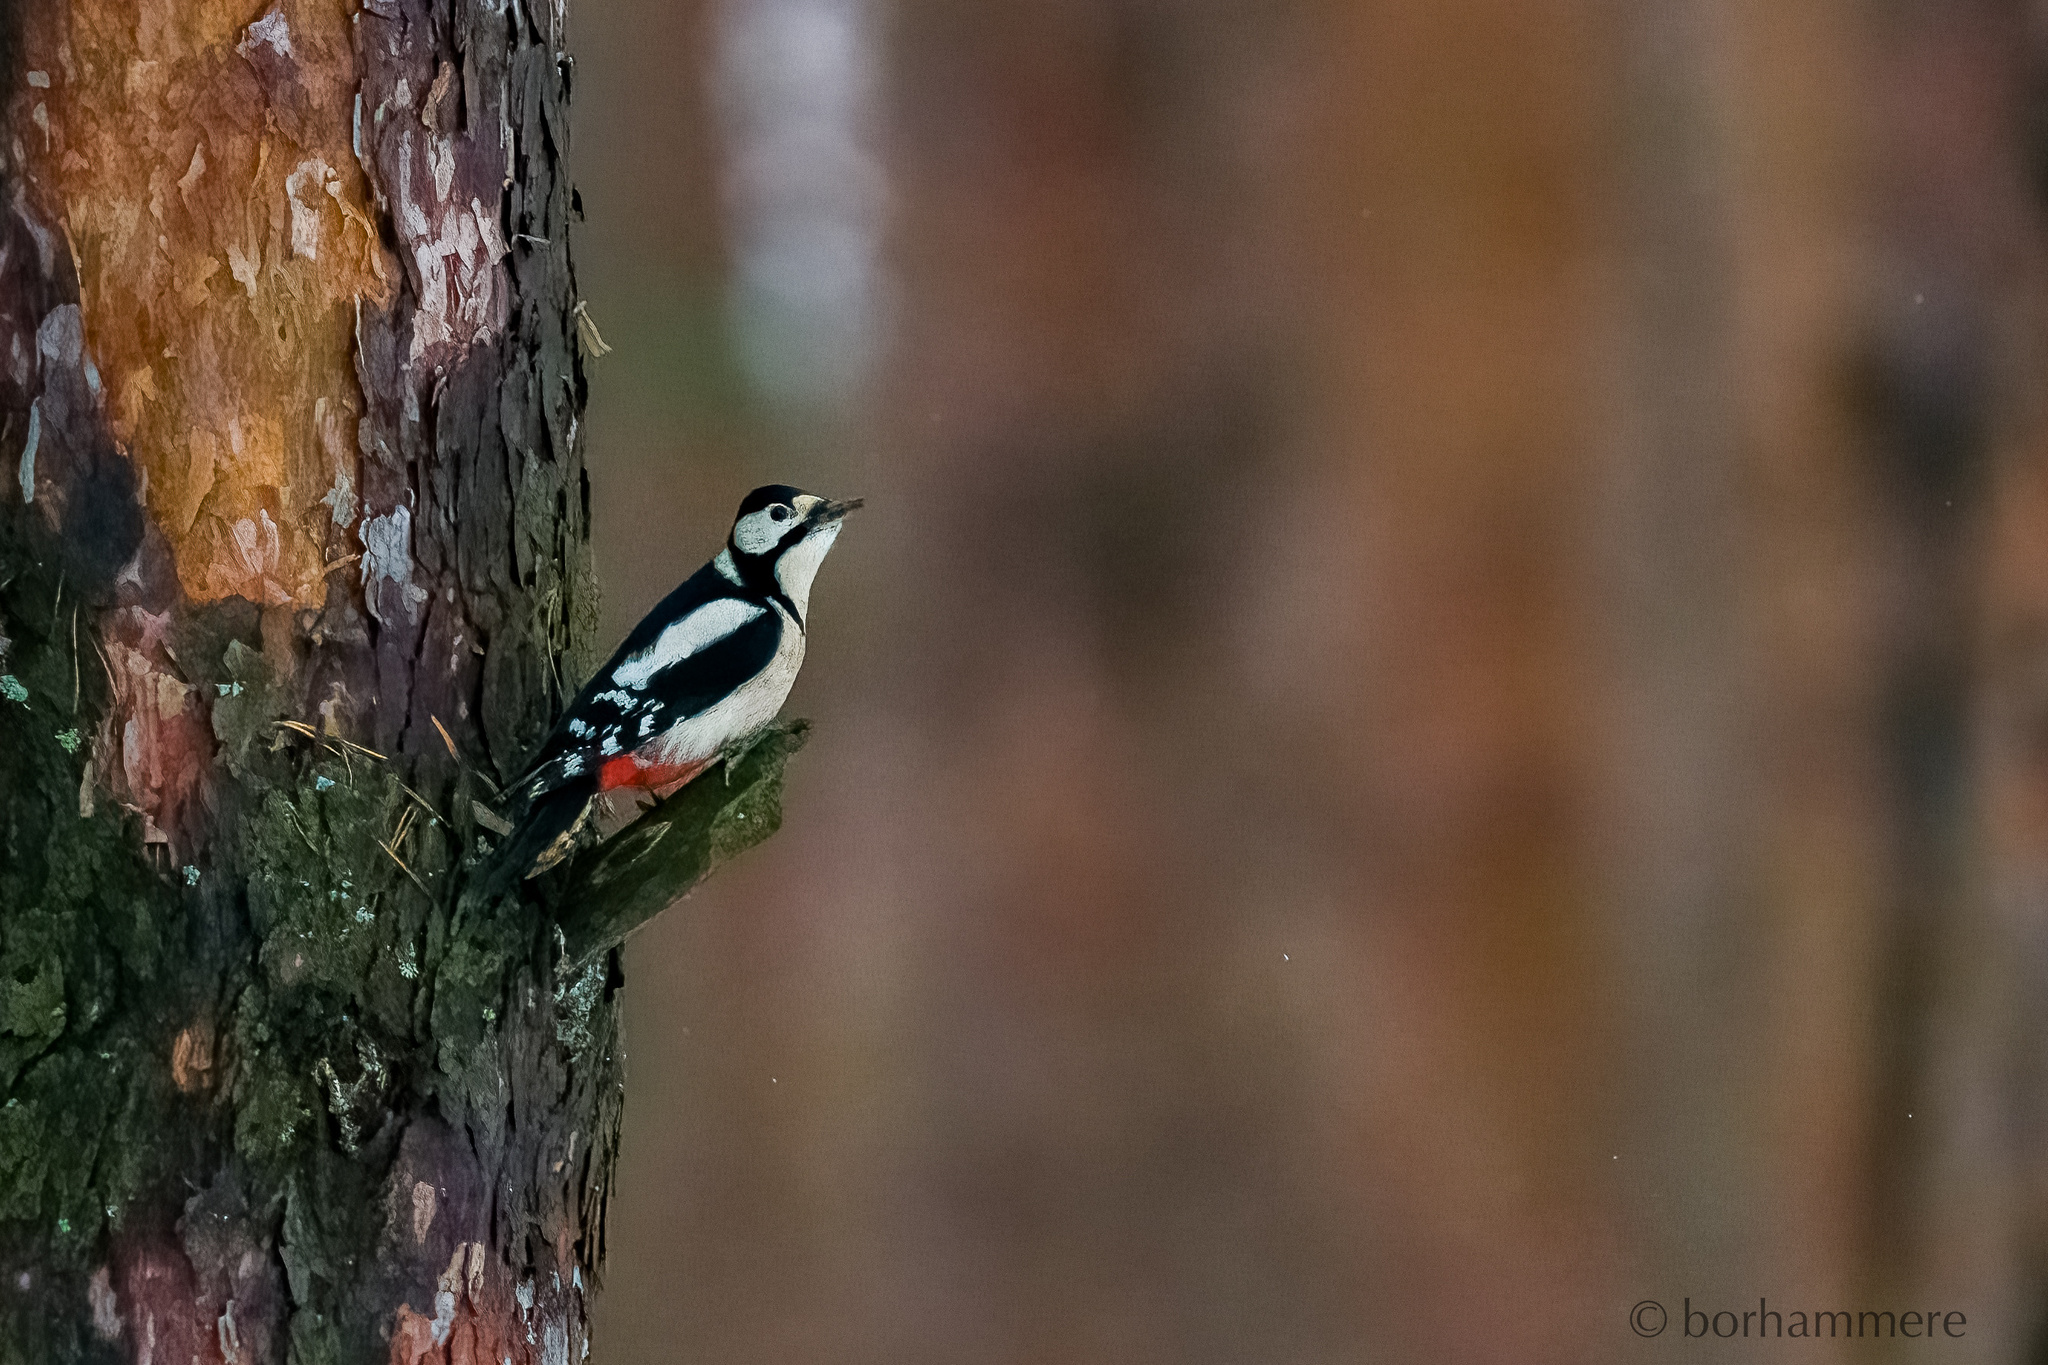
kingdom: Animalia
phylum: Chordata
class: Aves
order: Piciformes
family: Picidae
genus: Dendrocopos
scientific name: Dendrocopos major
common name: Great spotted woodpecker
